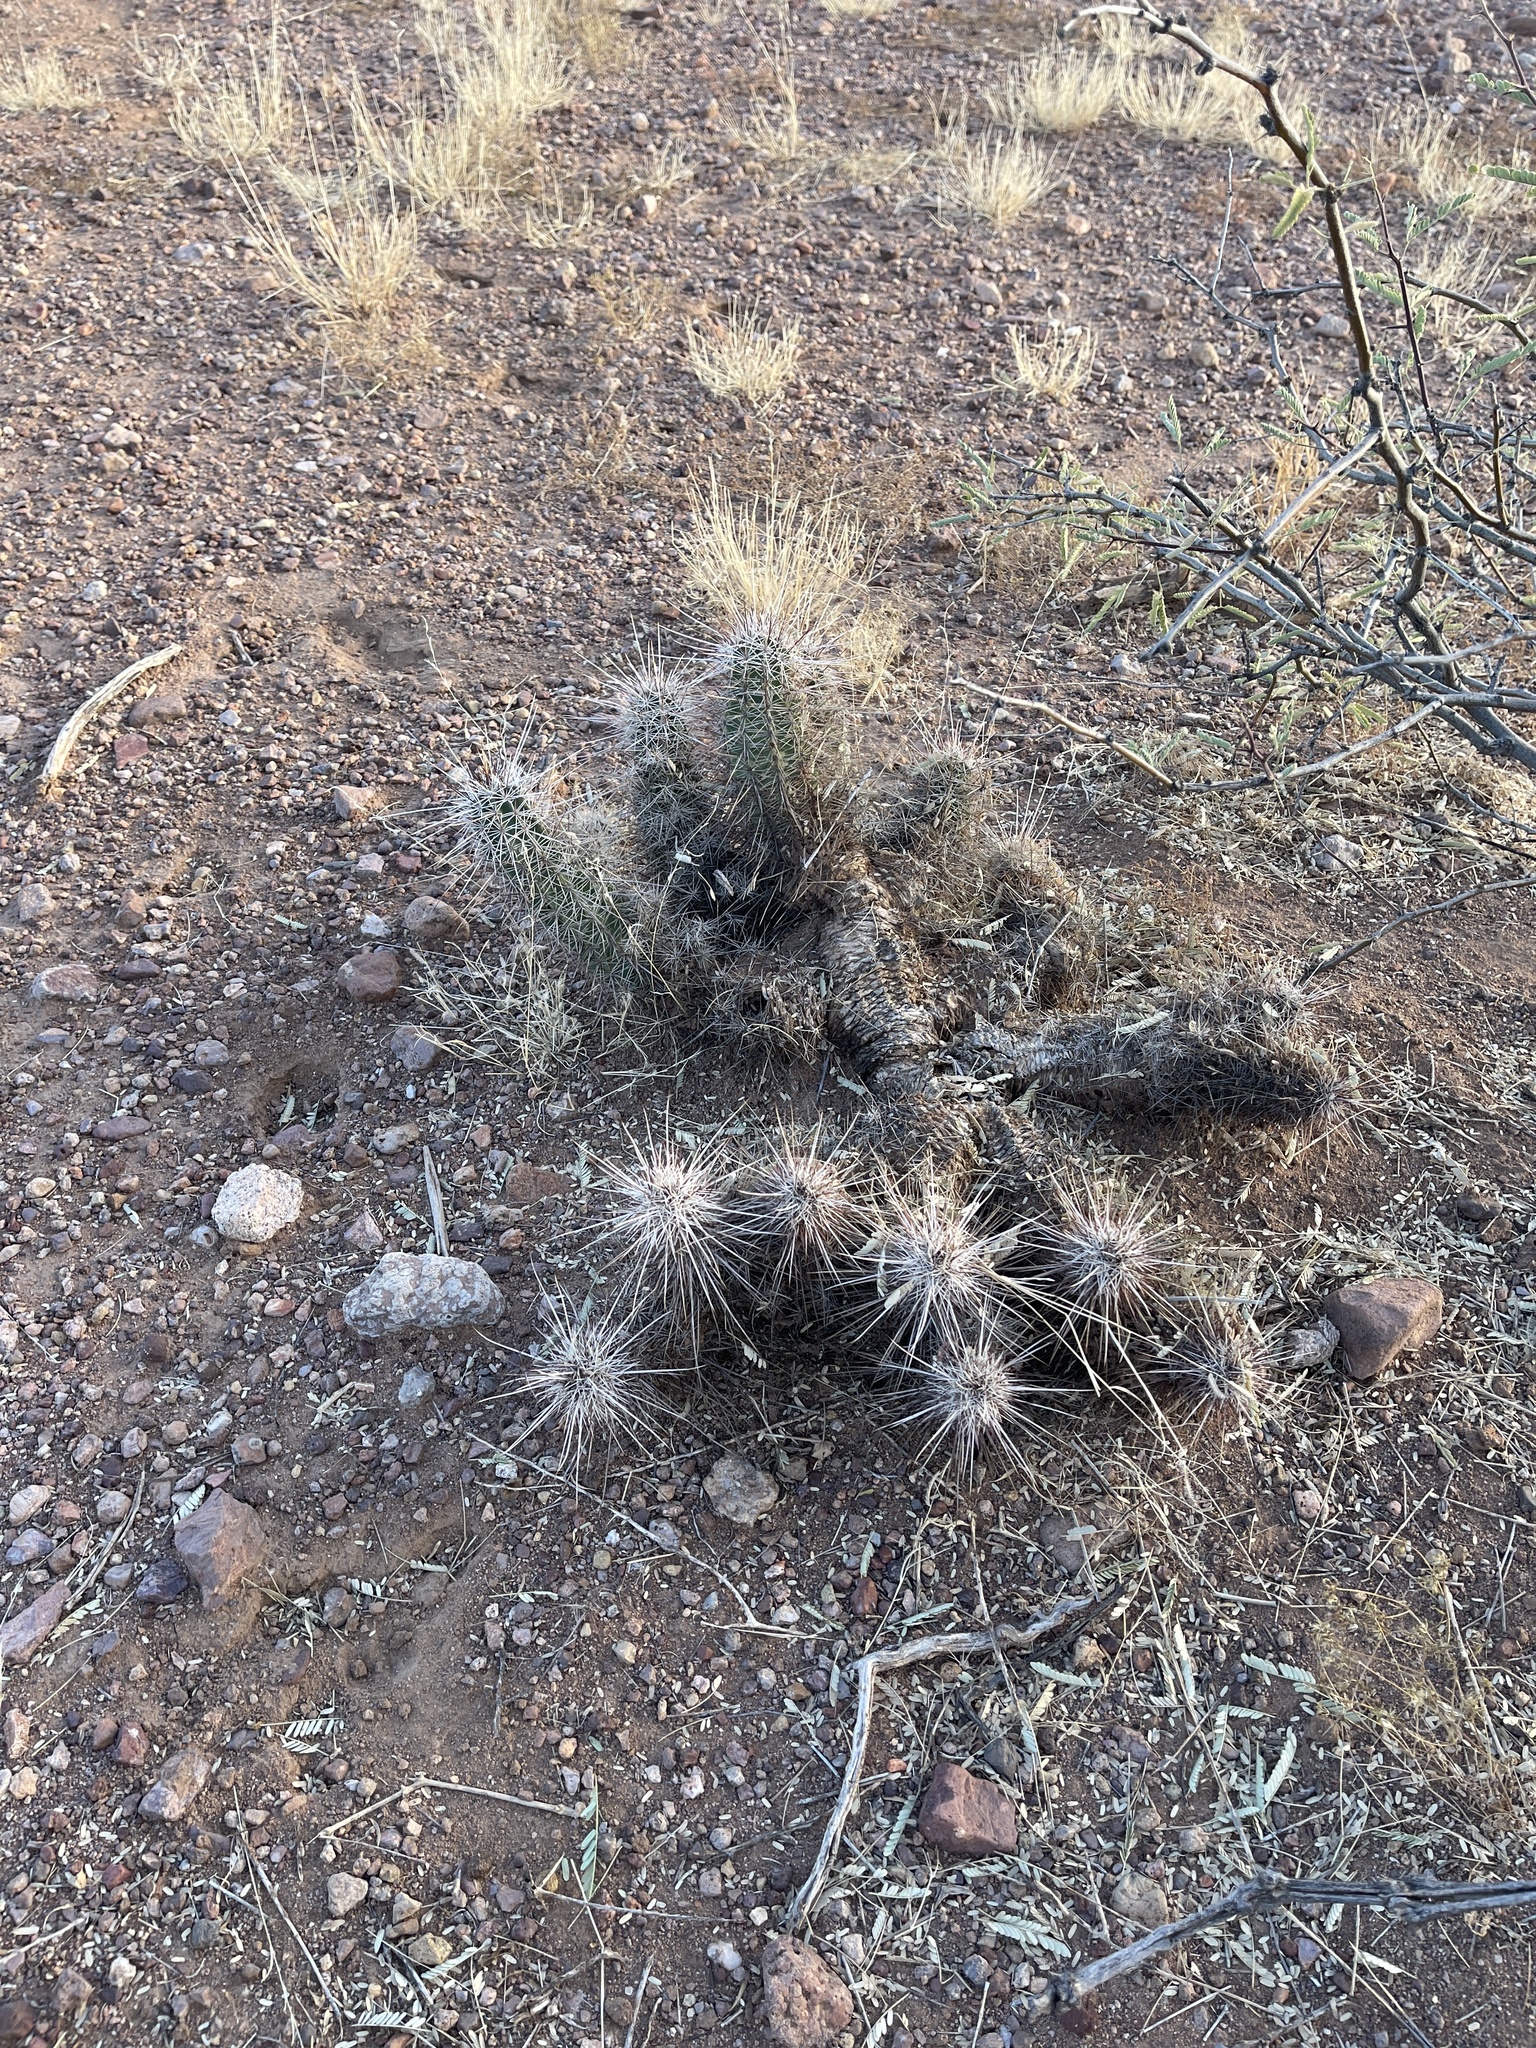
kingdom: Plantae
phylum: Tracheophyta
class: Magnoliopsida
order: Caryophyllales
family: Cactaceae
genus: Echinocereus
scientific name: Echinocereus fasciculatus
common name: Bundle hedgehog
